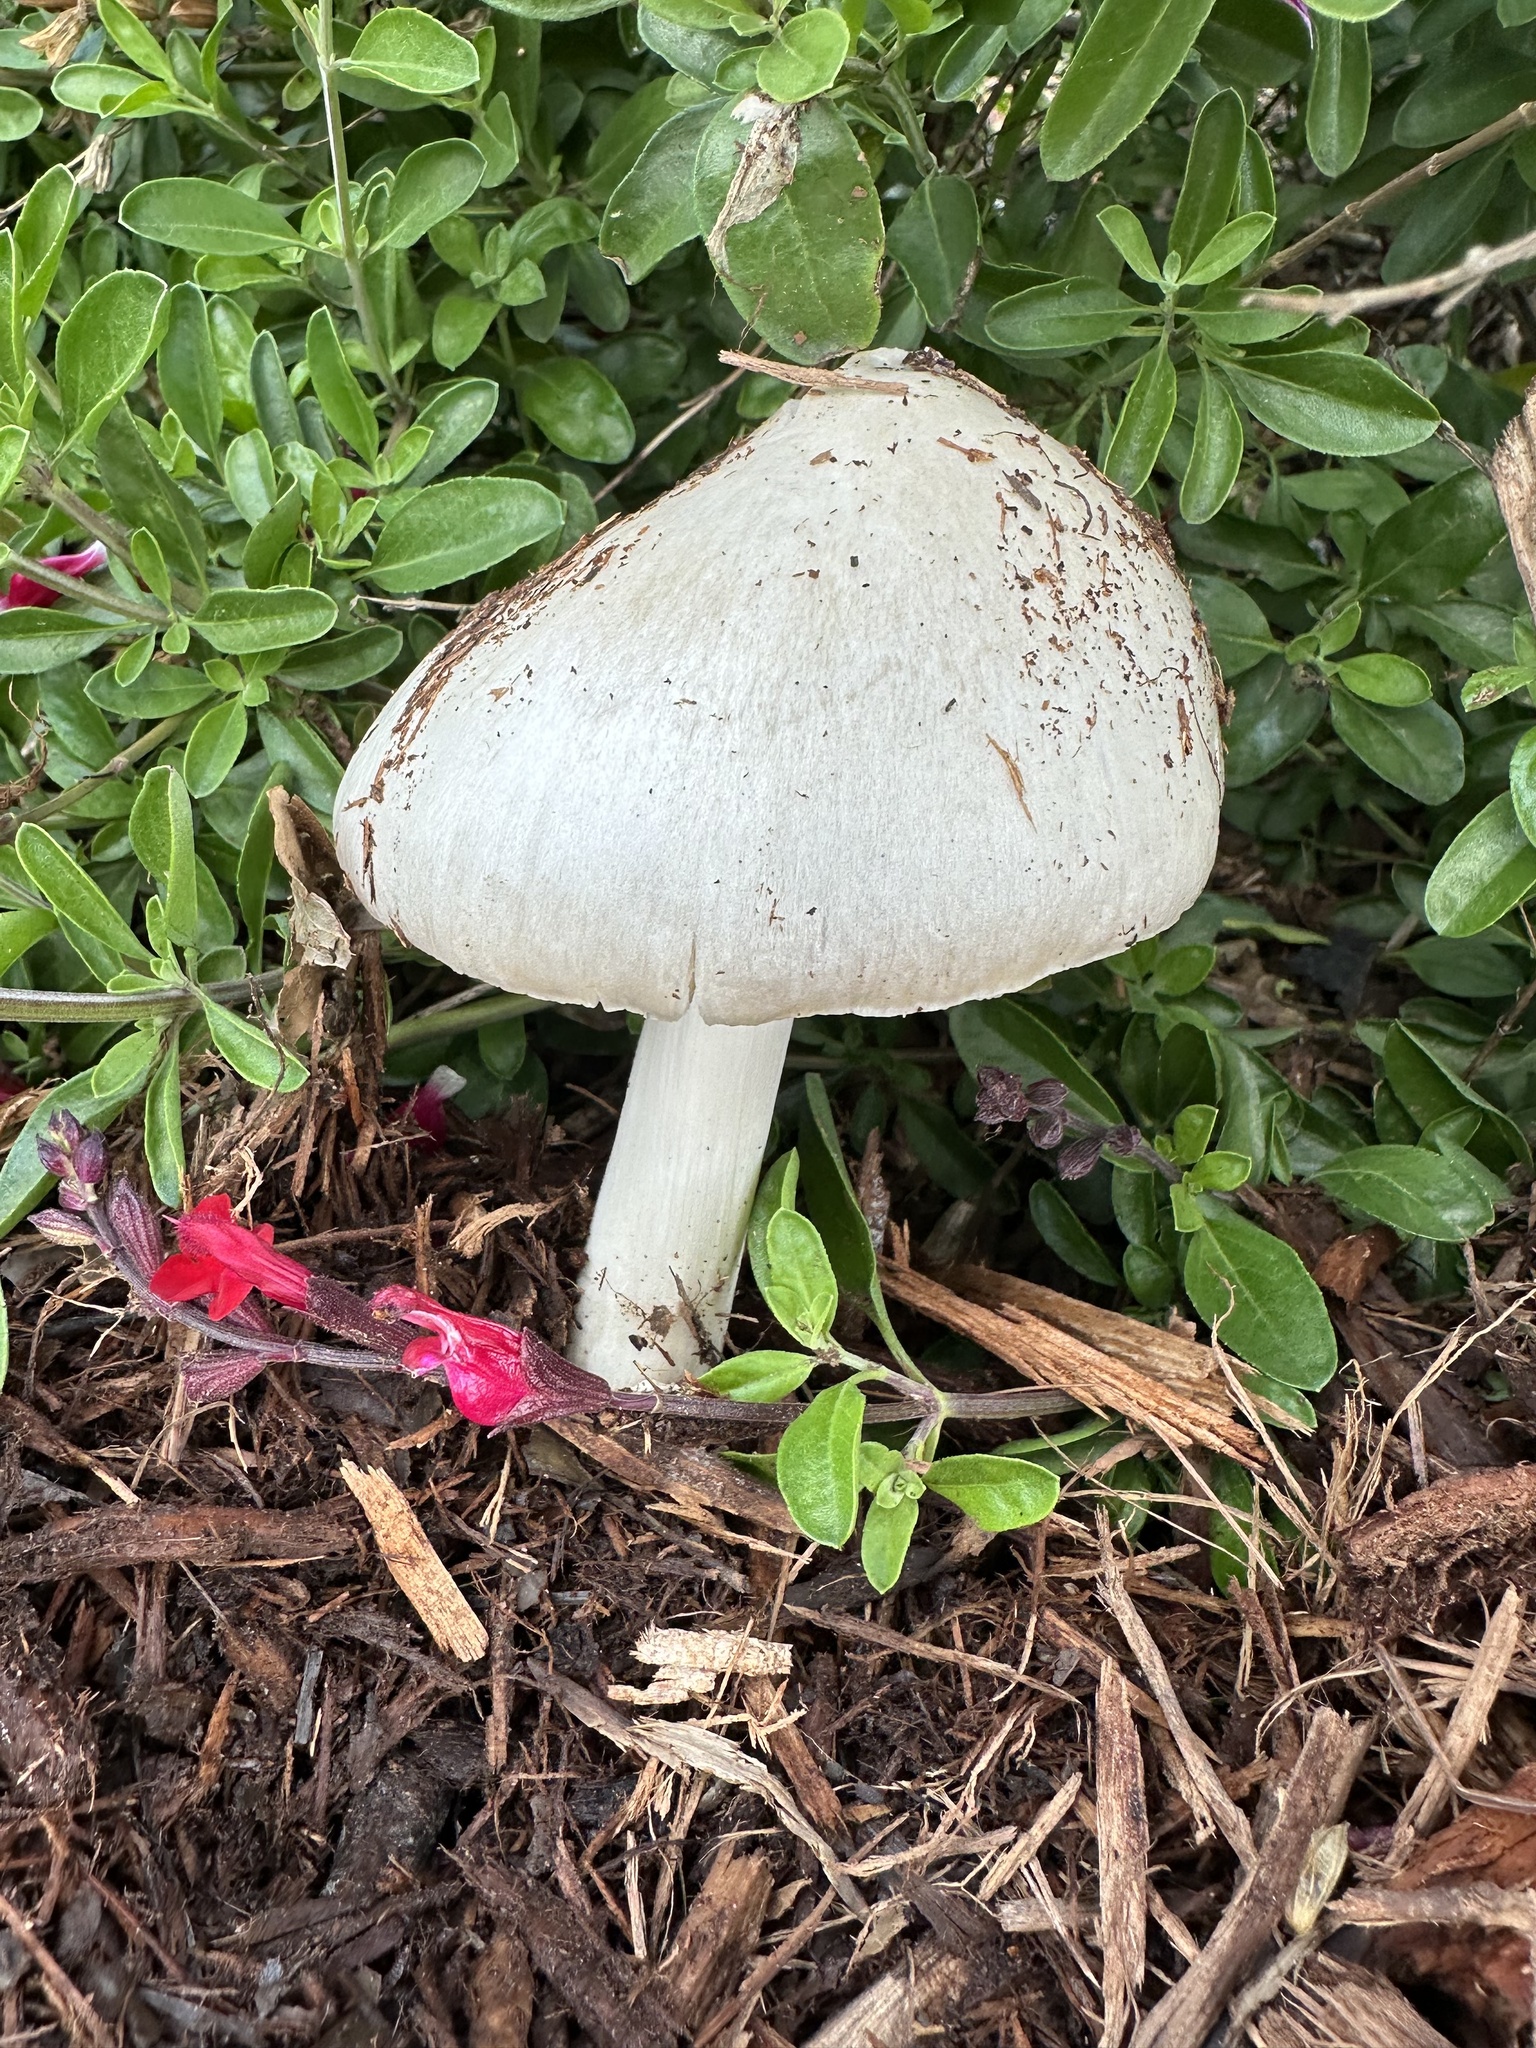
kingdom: Fungi
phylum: Basidiomycota
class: Agaricomycetes
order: Agaricales
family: Pluteaceae
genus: Volvopluteus
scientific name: Volvopluteus gloiocephalus
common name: Stubble rosegill
